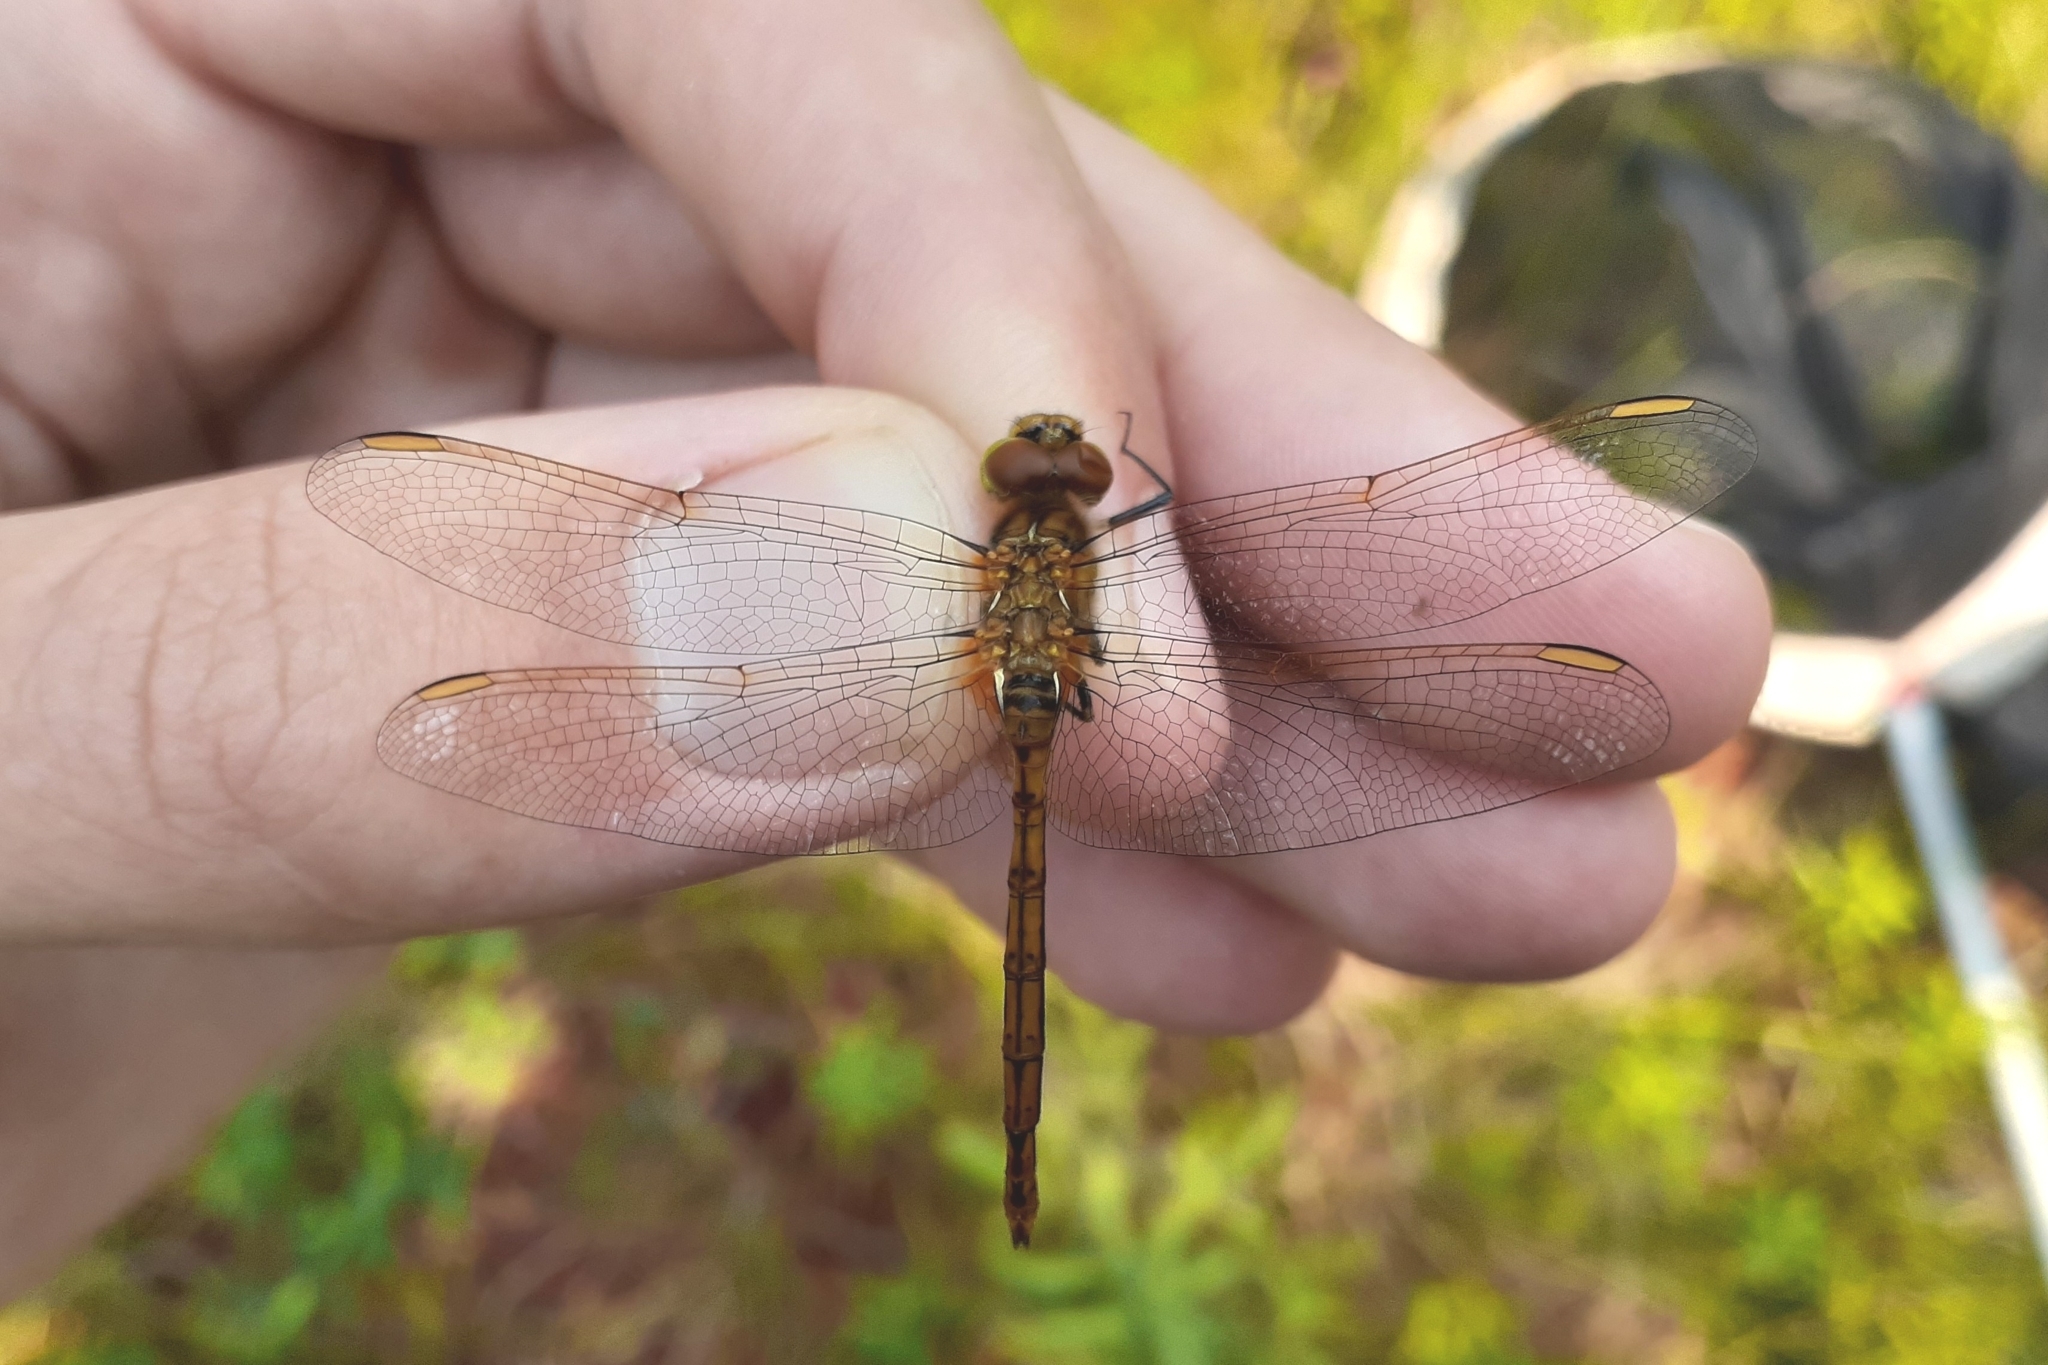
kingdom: Animalia
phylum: Arthropoda
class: Insecta
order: Odonata
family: Libellulidae
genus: Sympetrum
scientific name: Sympetrum costiferum
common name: Saffron-winged meadowhawk
